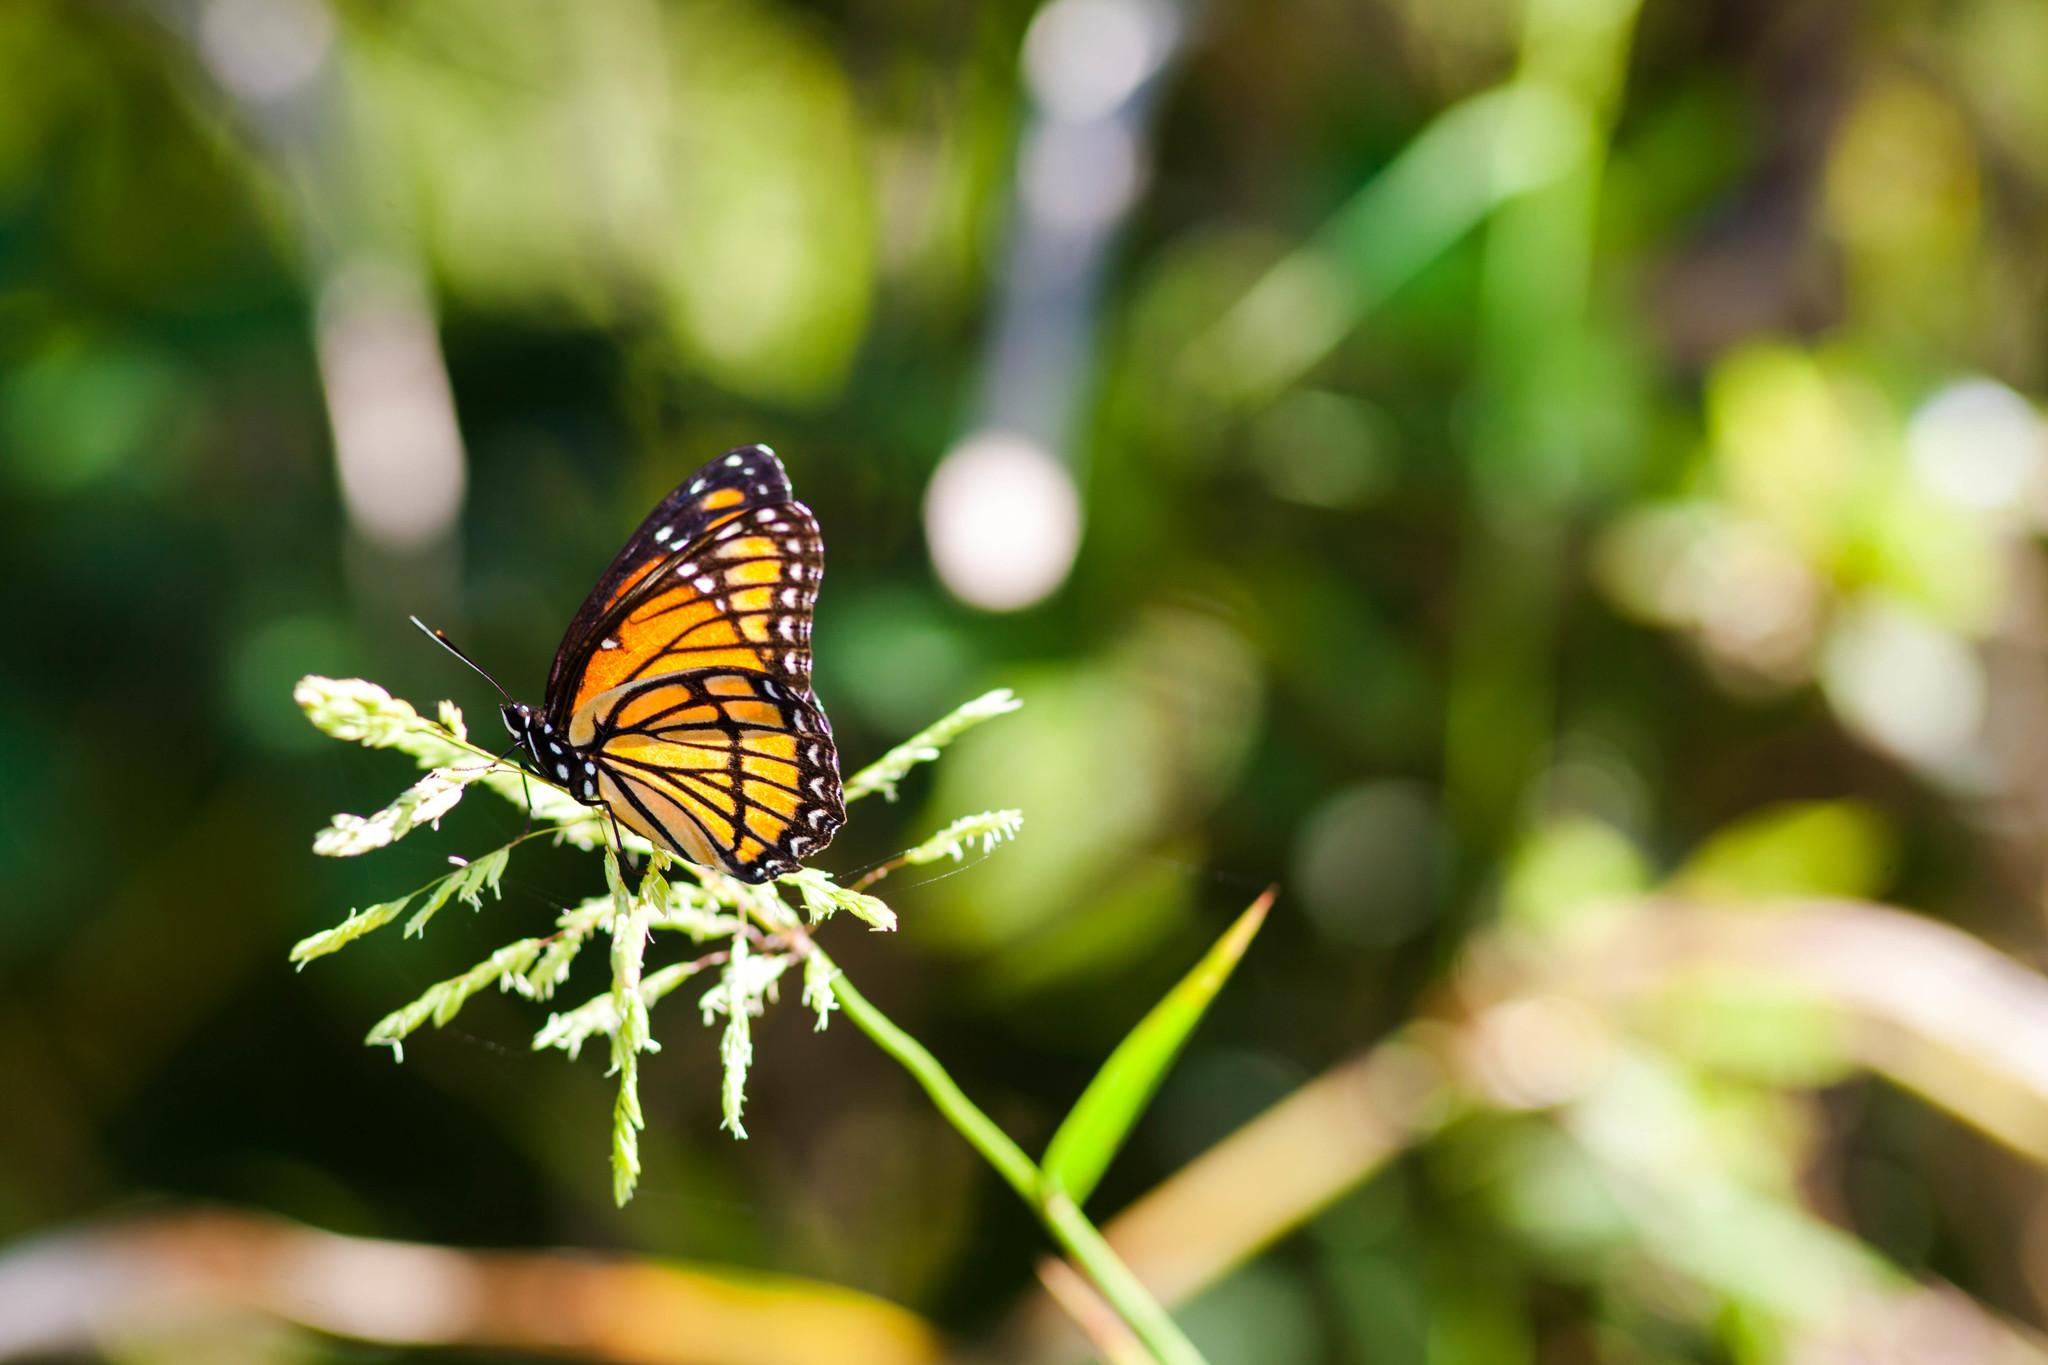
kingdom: Animalia
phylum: Arthropoda
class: Insecta
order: Lepidoptera
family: Nymphalidae
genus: Limenitis
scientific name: Limenitis archippus
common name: Viceroy
